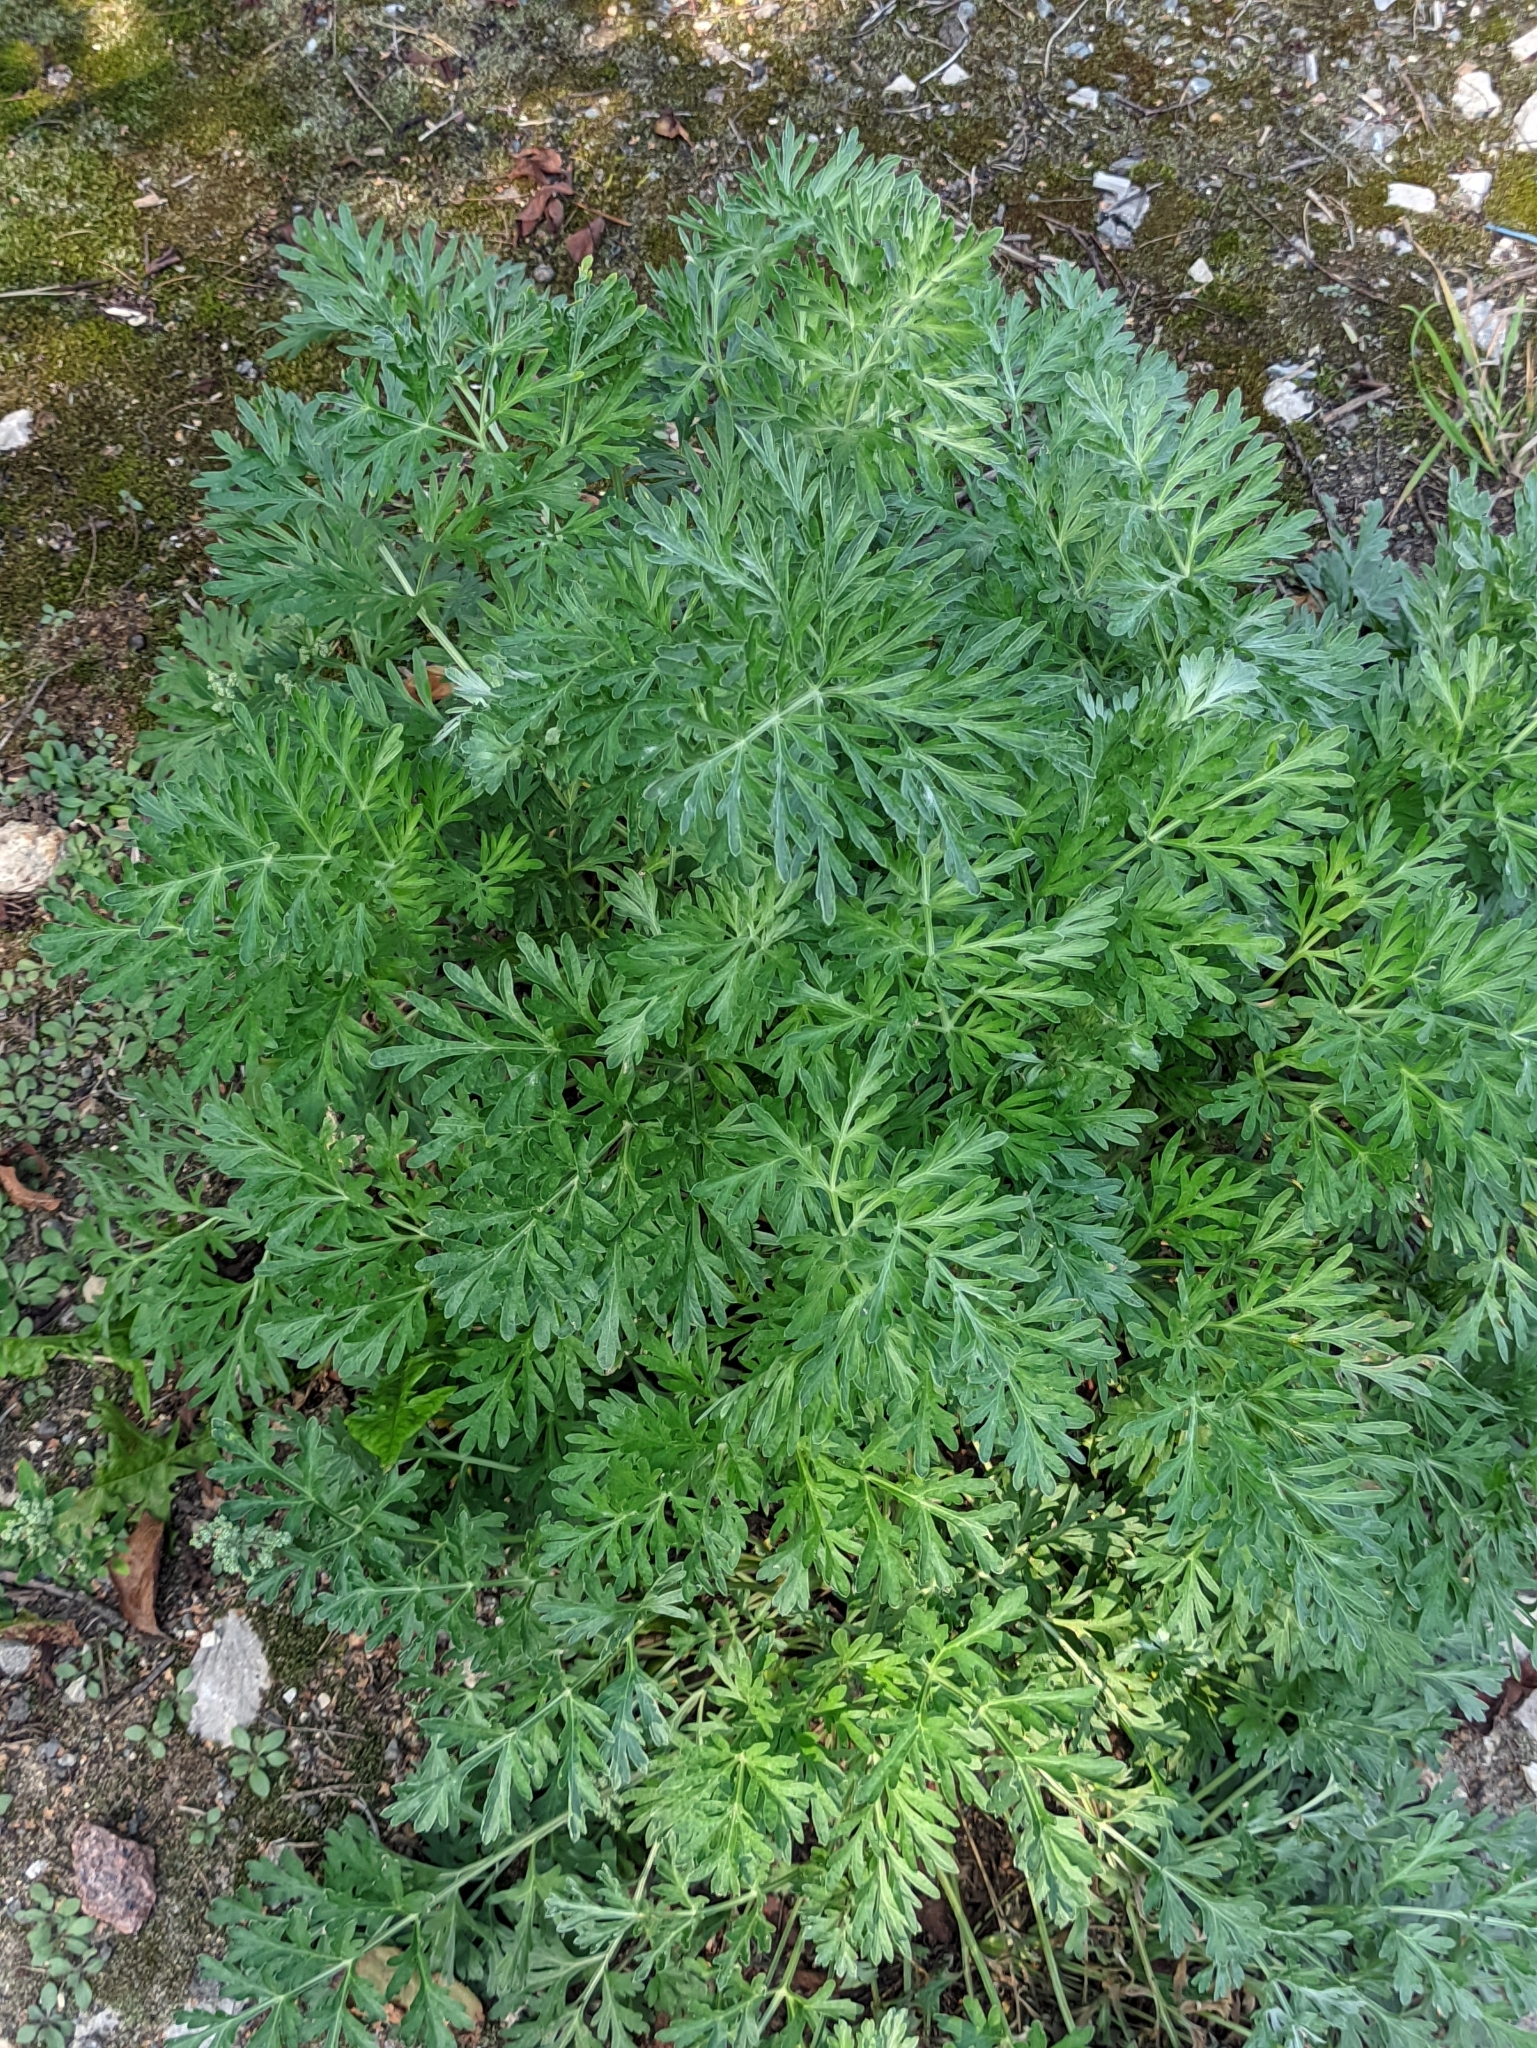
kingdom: Plantae
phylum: Tracheophyta
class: Magnoliopsida
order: Asterales
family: Asteraceae
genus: Artemisia
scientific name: Artemisia absinthium
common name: Wormwood
